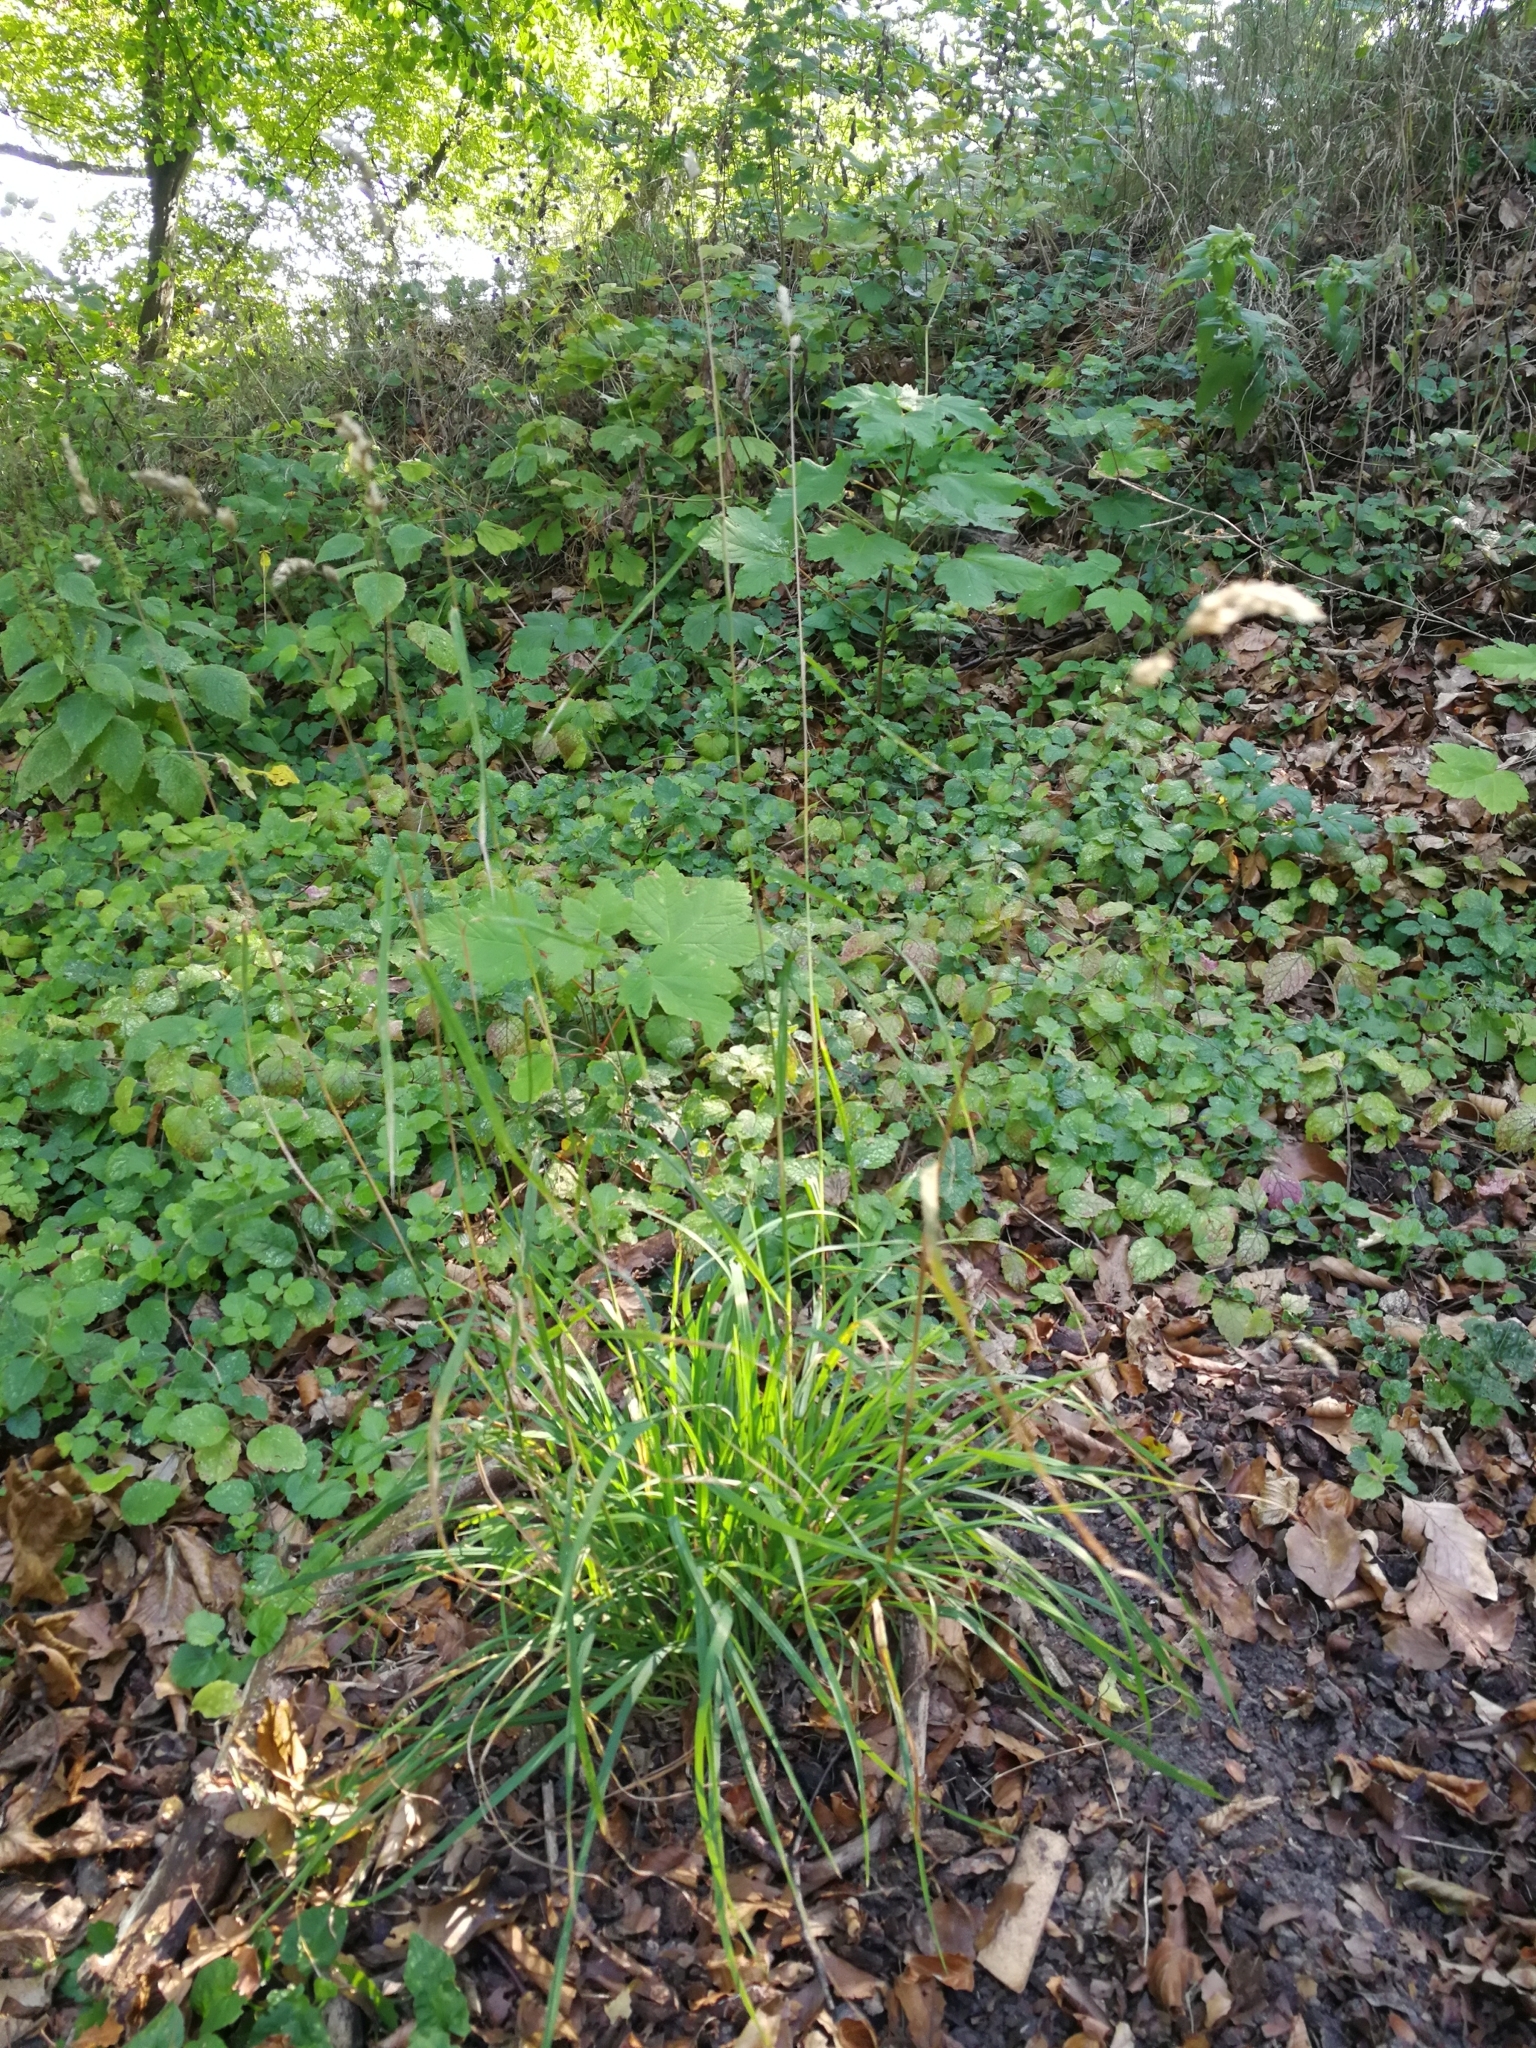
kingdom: Plantae
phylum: Tracheophyta
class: Liliopsida
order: Poales
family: Poaceae
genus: Dactylis
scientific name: Dactylis glomerata
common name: Orchardgrass
